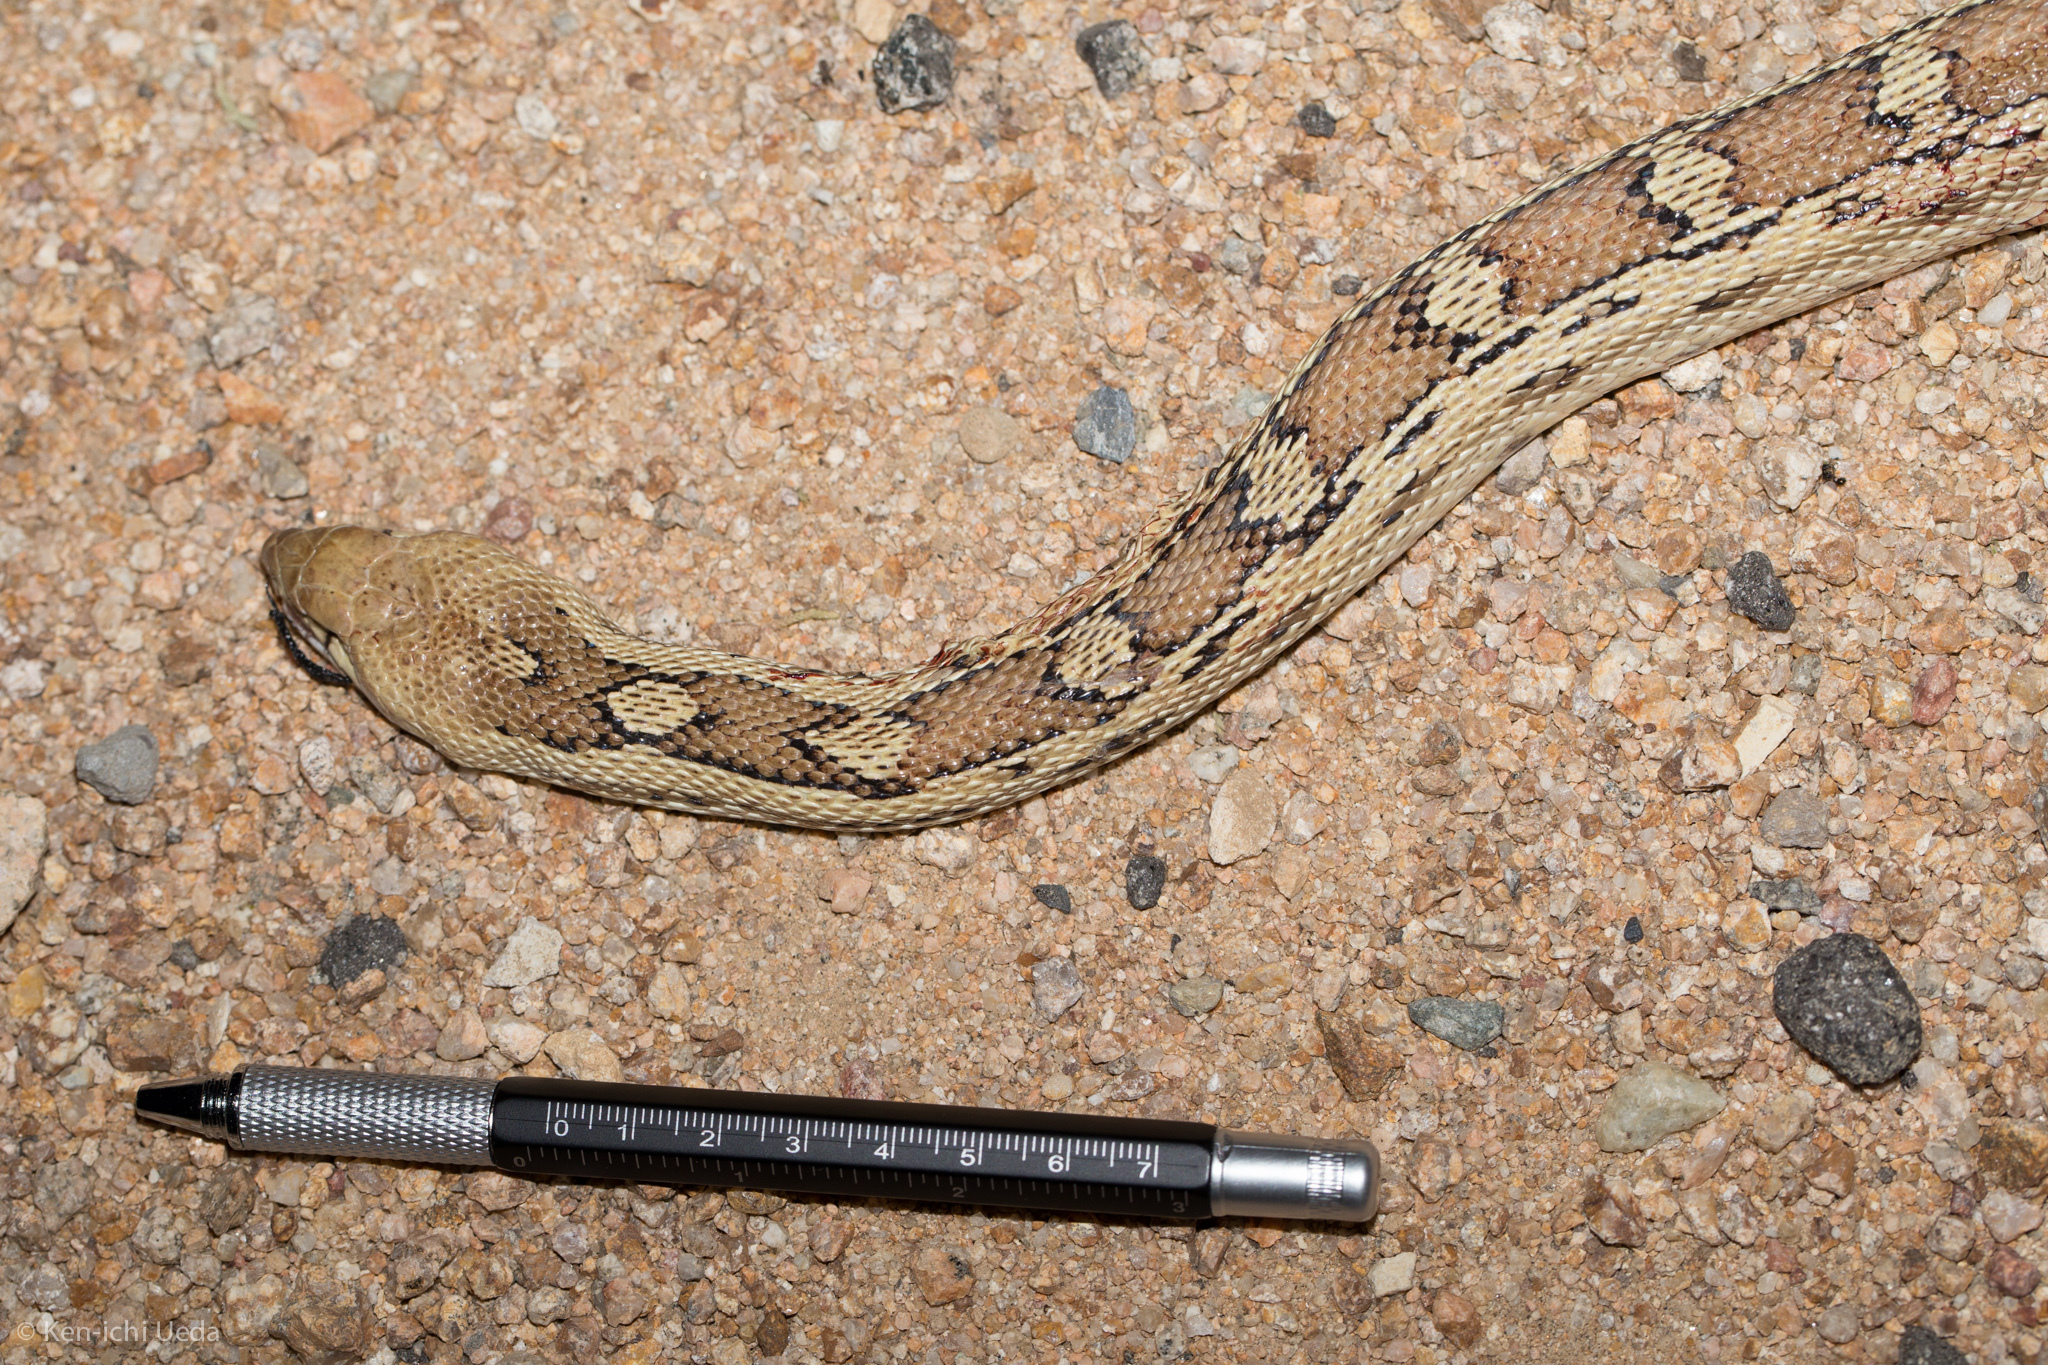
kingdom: Animalia
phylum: Chordata
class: Squamata
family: Colubridae
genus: Pituophis
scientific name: Pituophis catenifer
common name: Gopher snake
